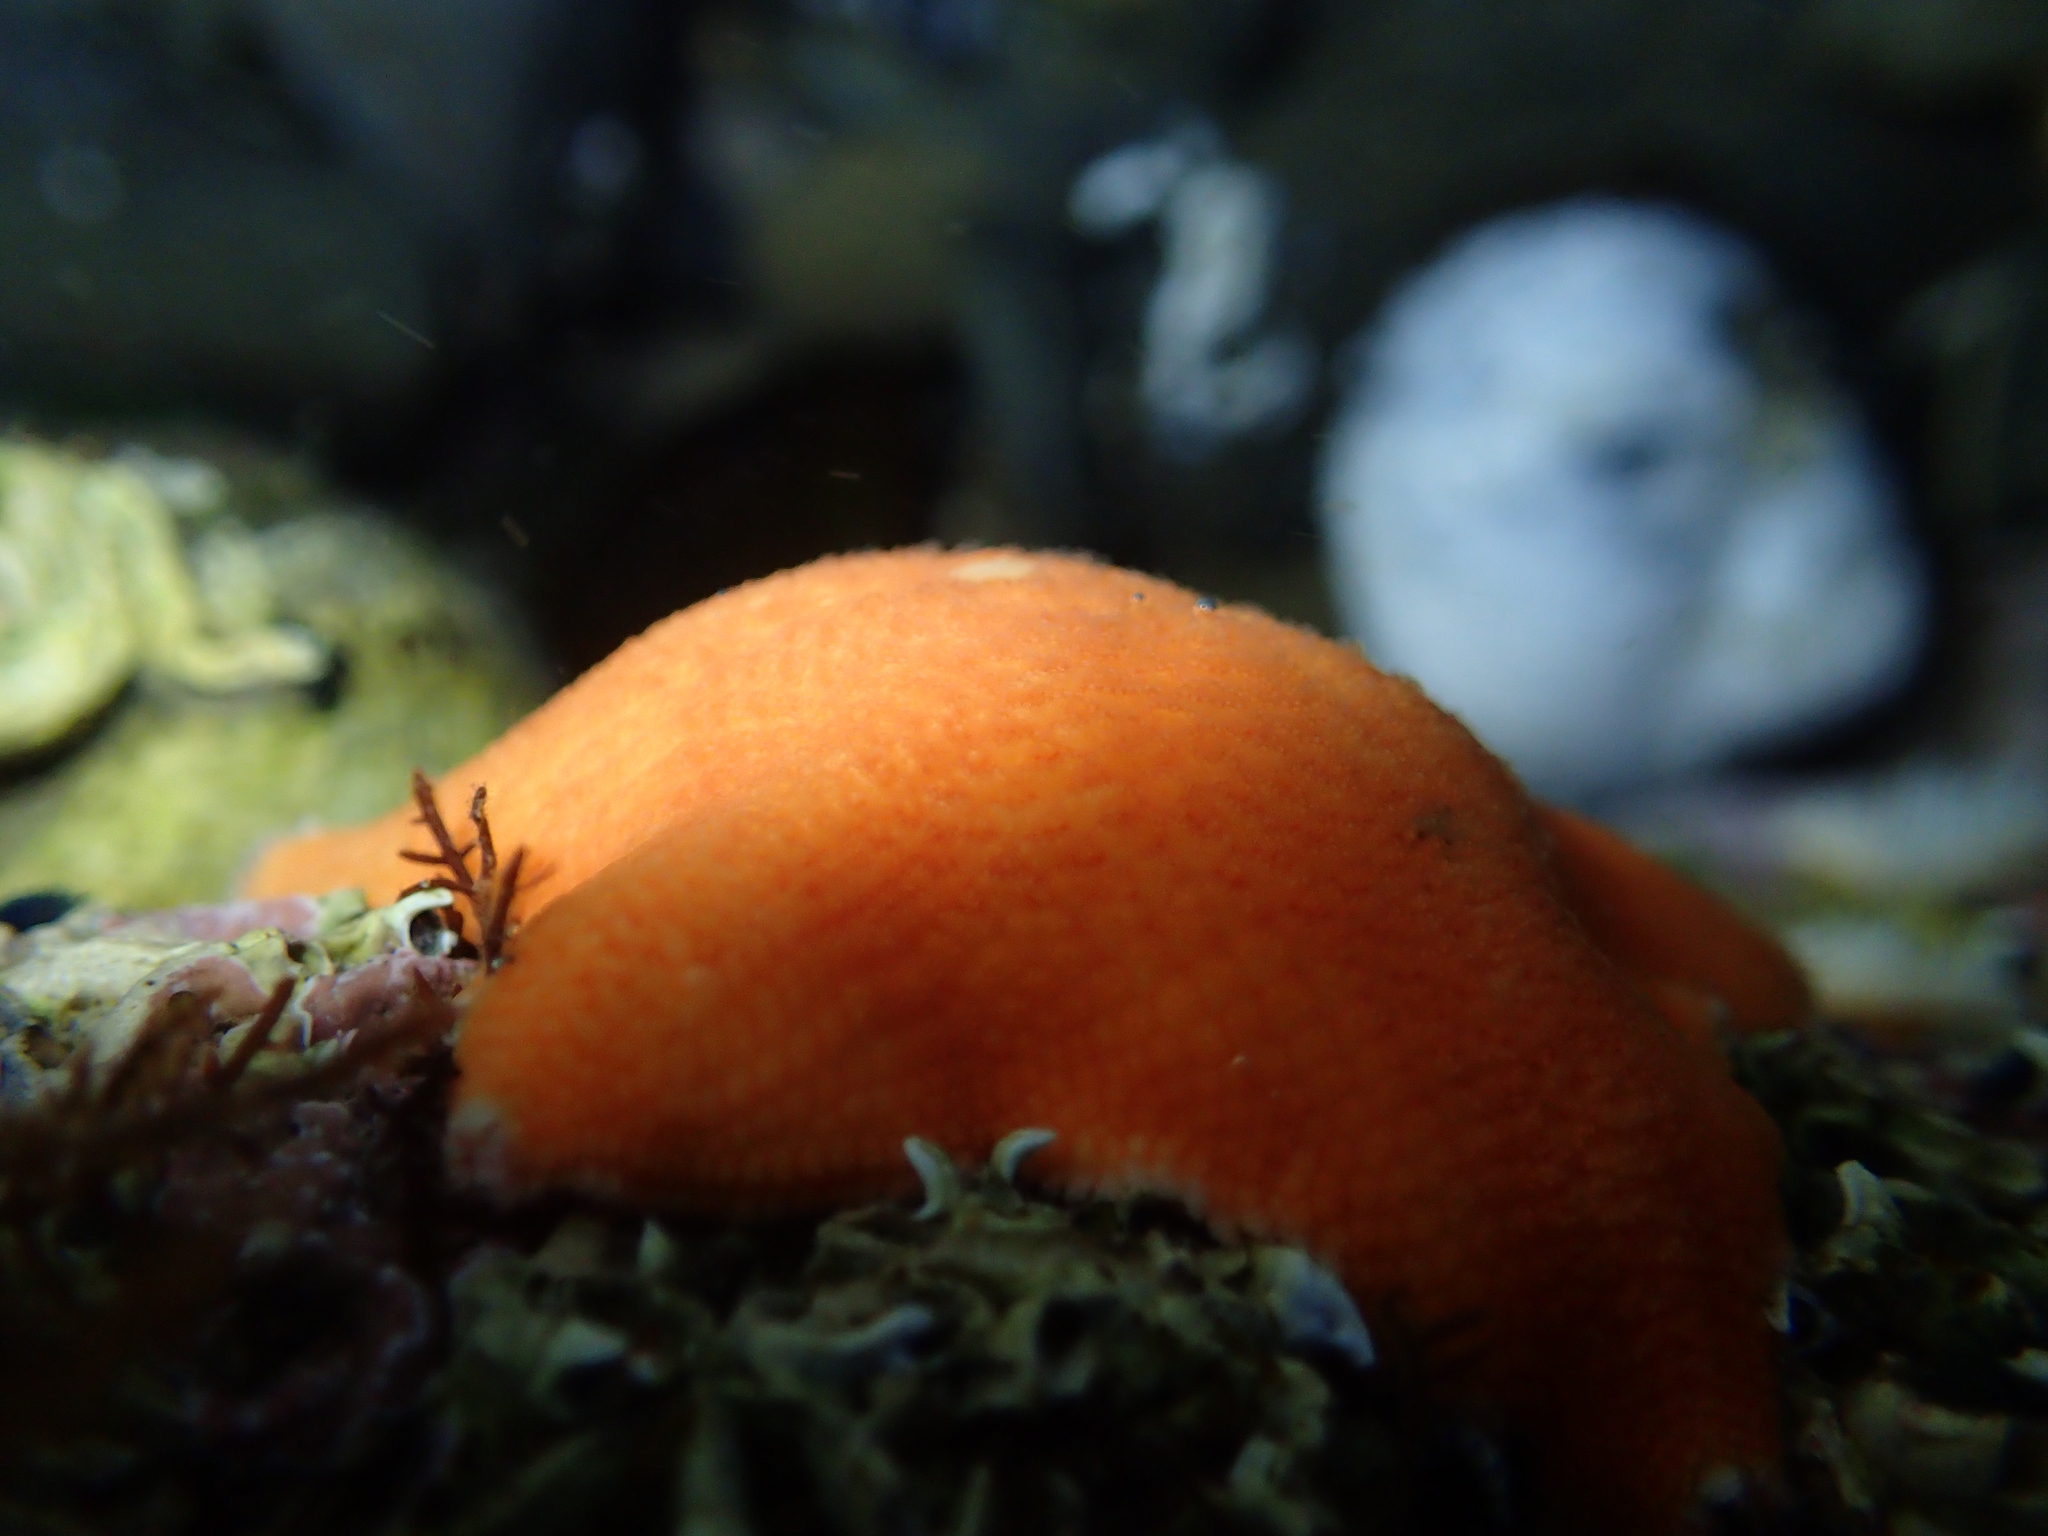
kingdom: Animalia
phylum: Echinodermata
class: Asteroidea
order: Valvatida
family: Asterinidae
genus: Patiriella
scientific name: Patiriella regularis
